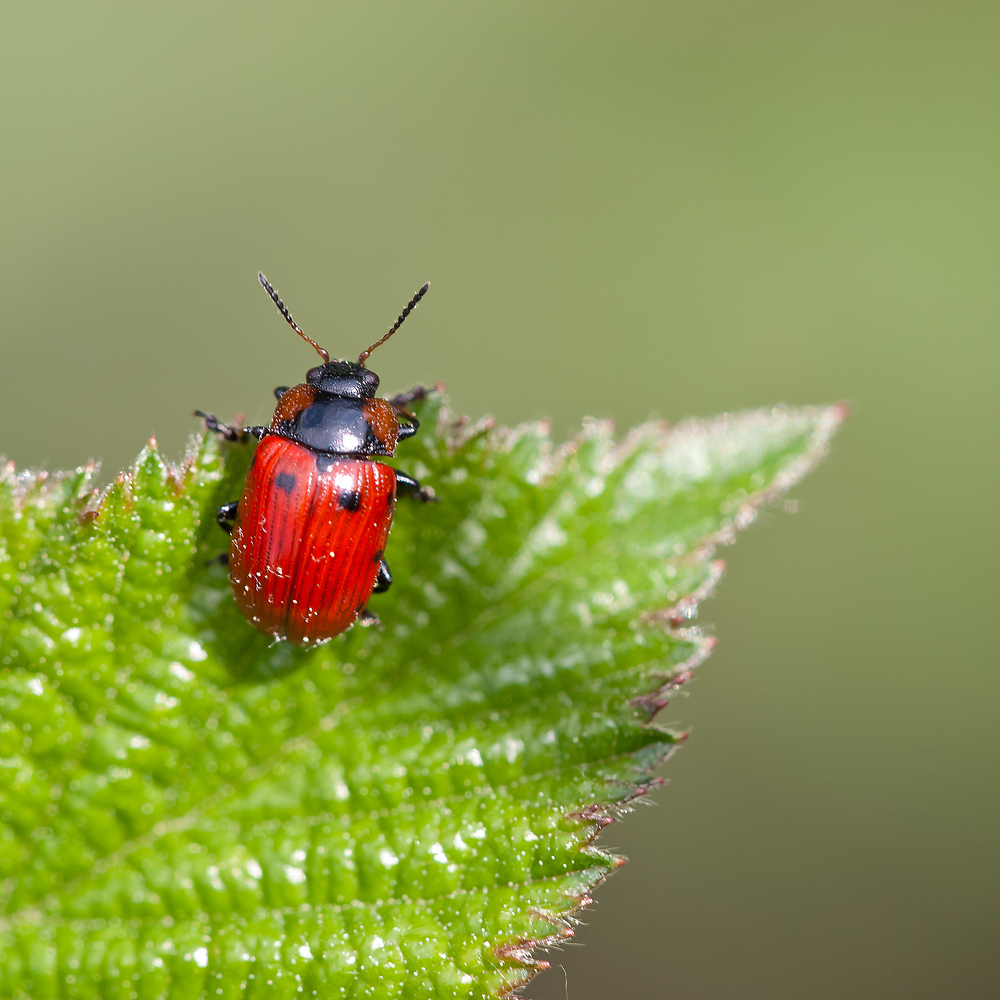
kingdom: Animalia
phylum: Arthropoda
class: Insecta
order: Coleoptera
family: Chrysomelidae
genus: Gonioctena
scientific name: Gonioctena viminalis
